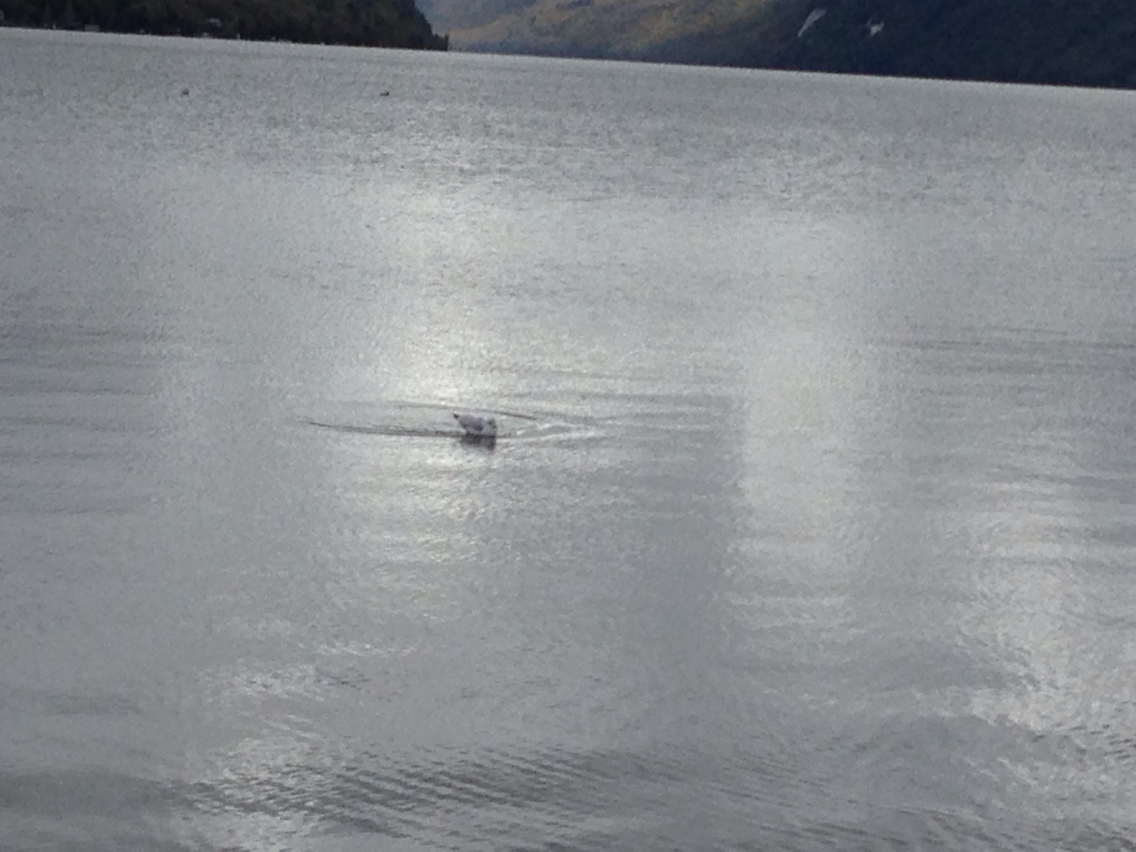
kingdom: Animalia
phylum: Chordata
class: Aves
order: Charadriiformes
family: Laridae
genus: Larus
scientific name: Larus
